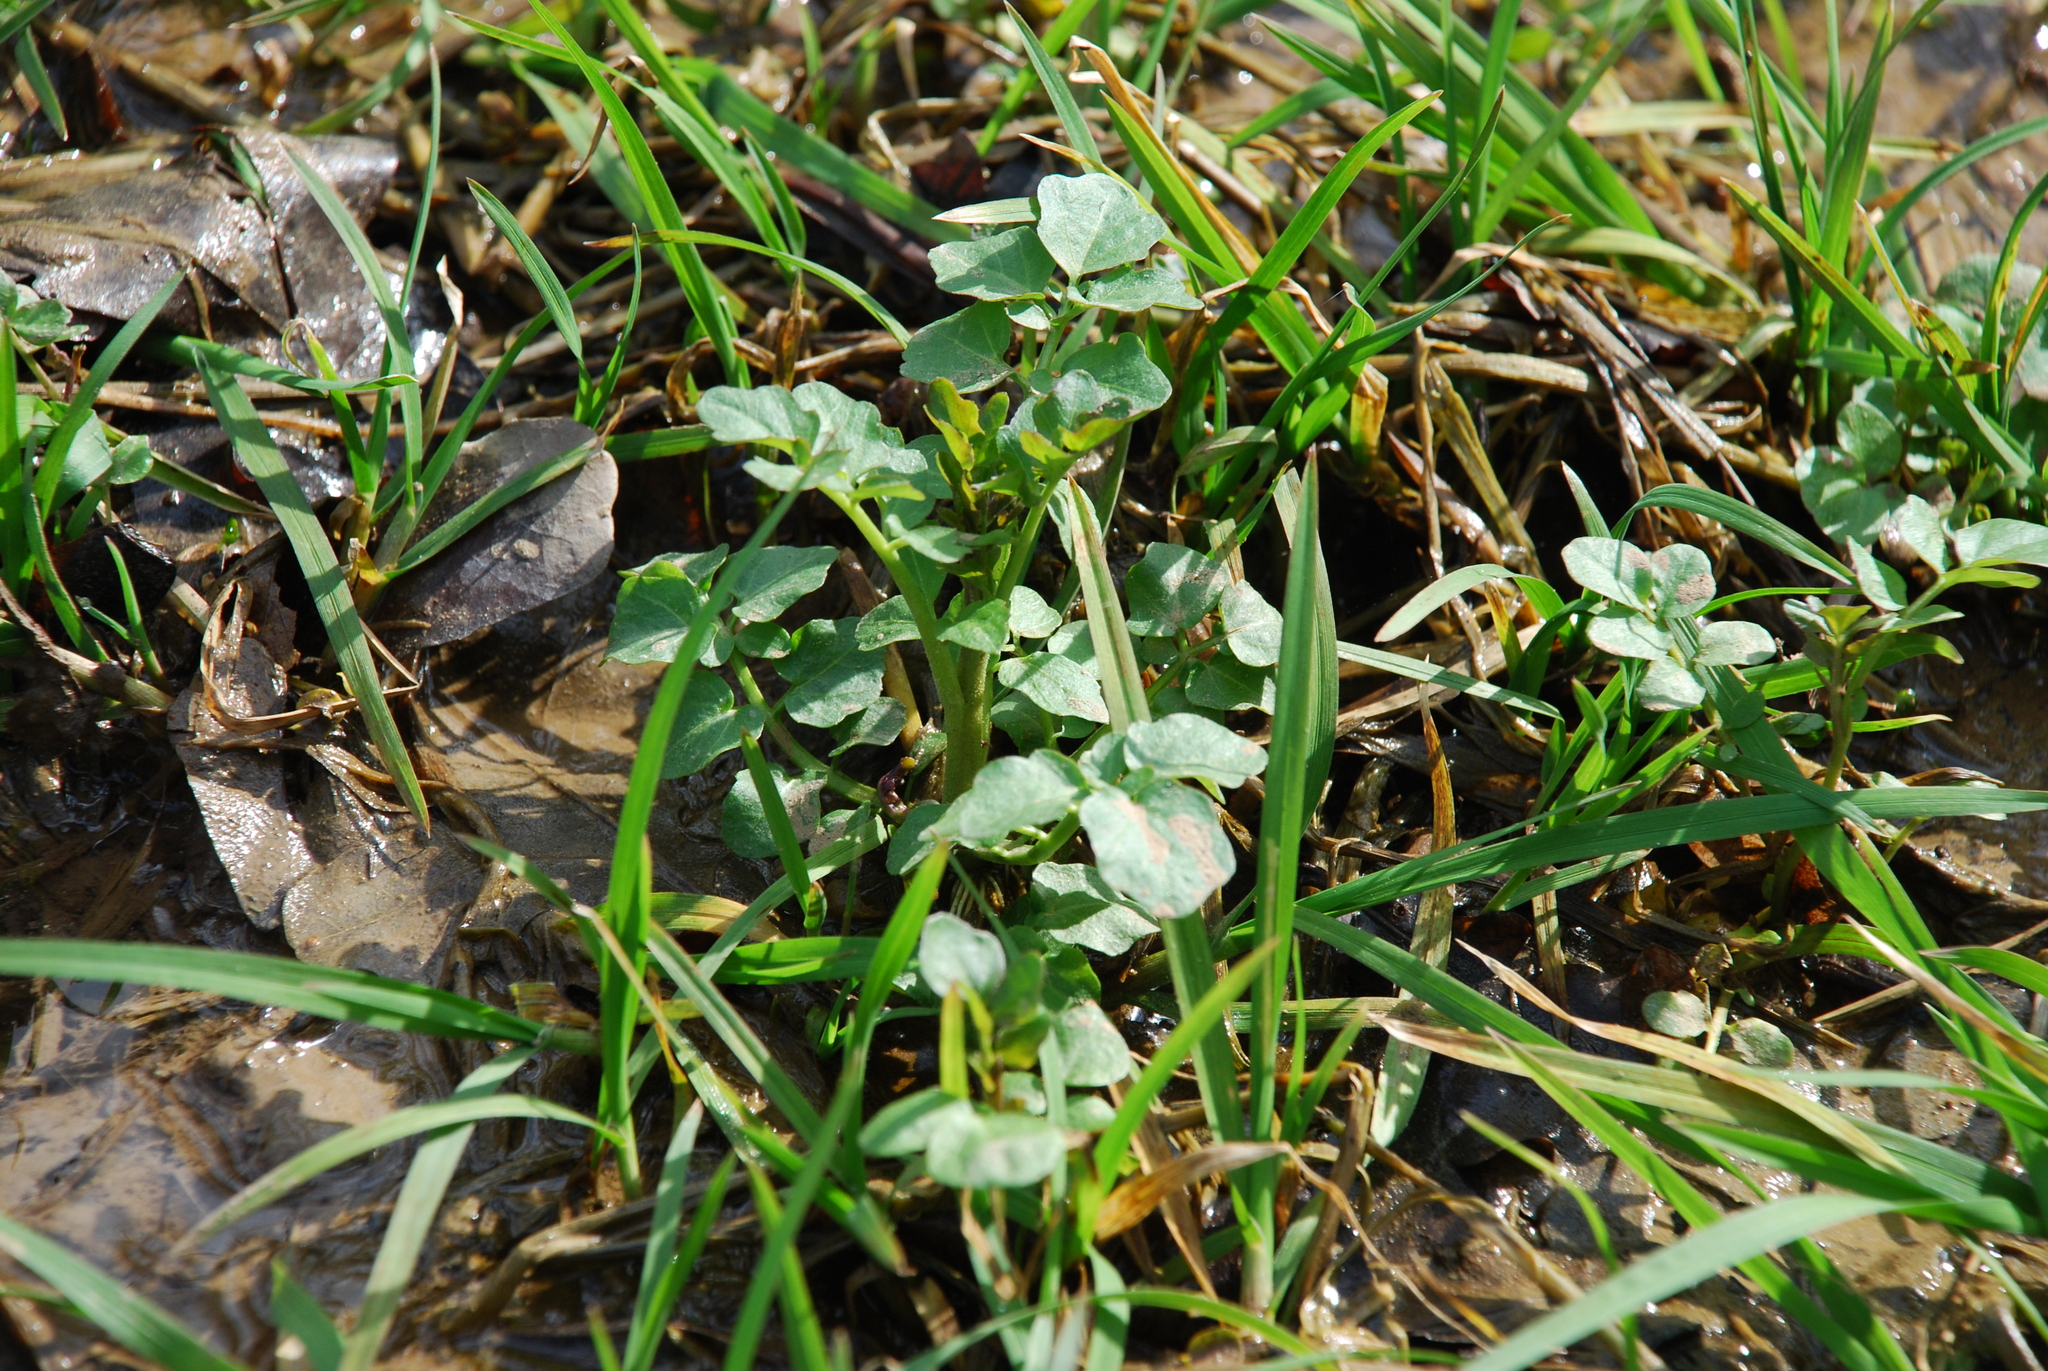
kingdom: Plantae
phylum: Tracheophyta
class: Magnoliopsida
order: Brassicales
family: Brassicaceae
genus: Cardamine
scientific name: Cardamine amara
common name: Large bitter-cress
